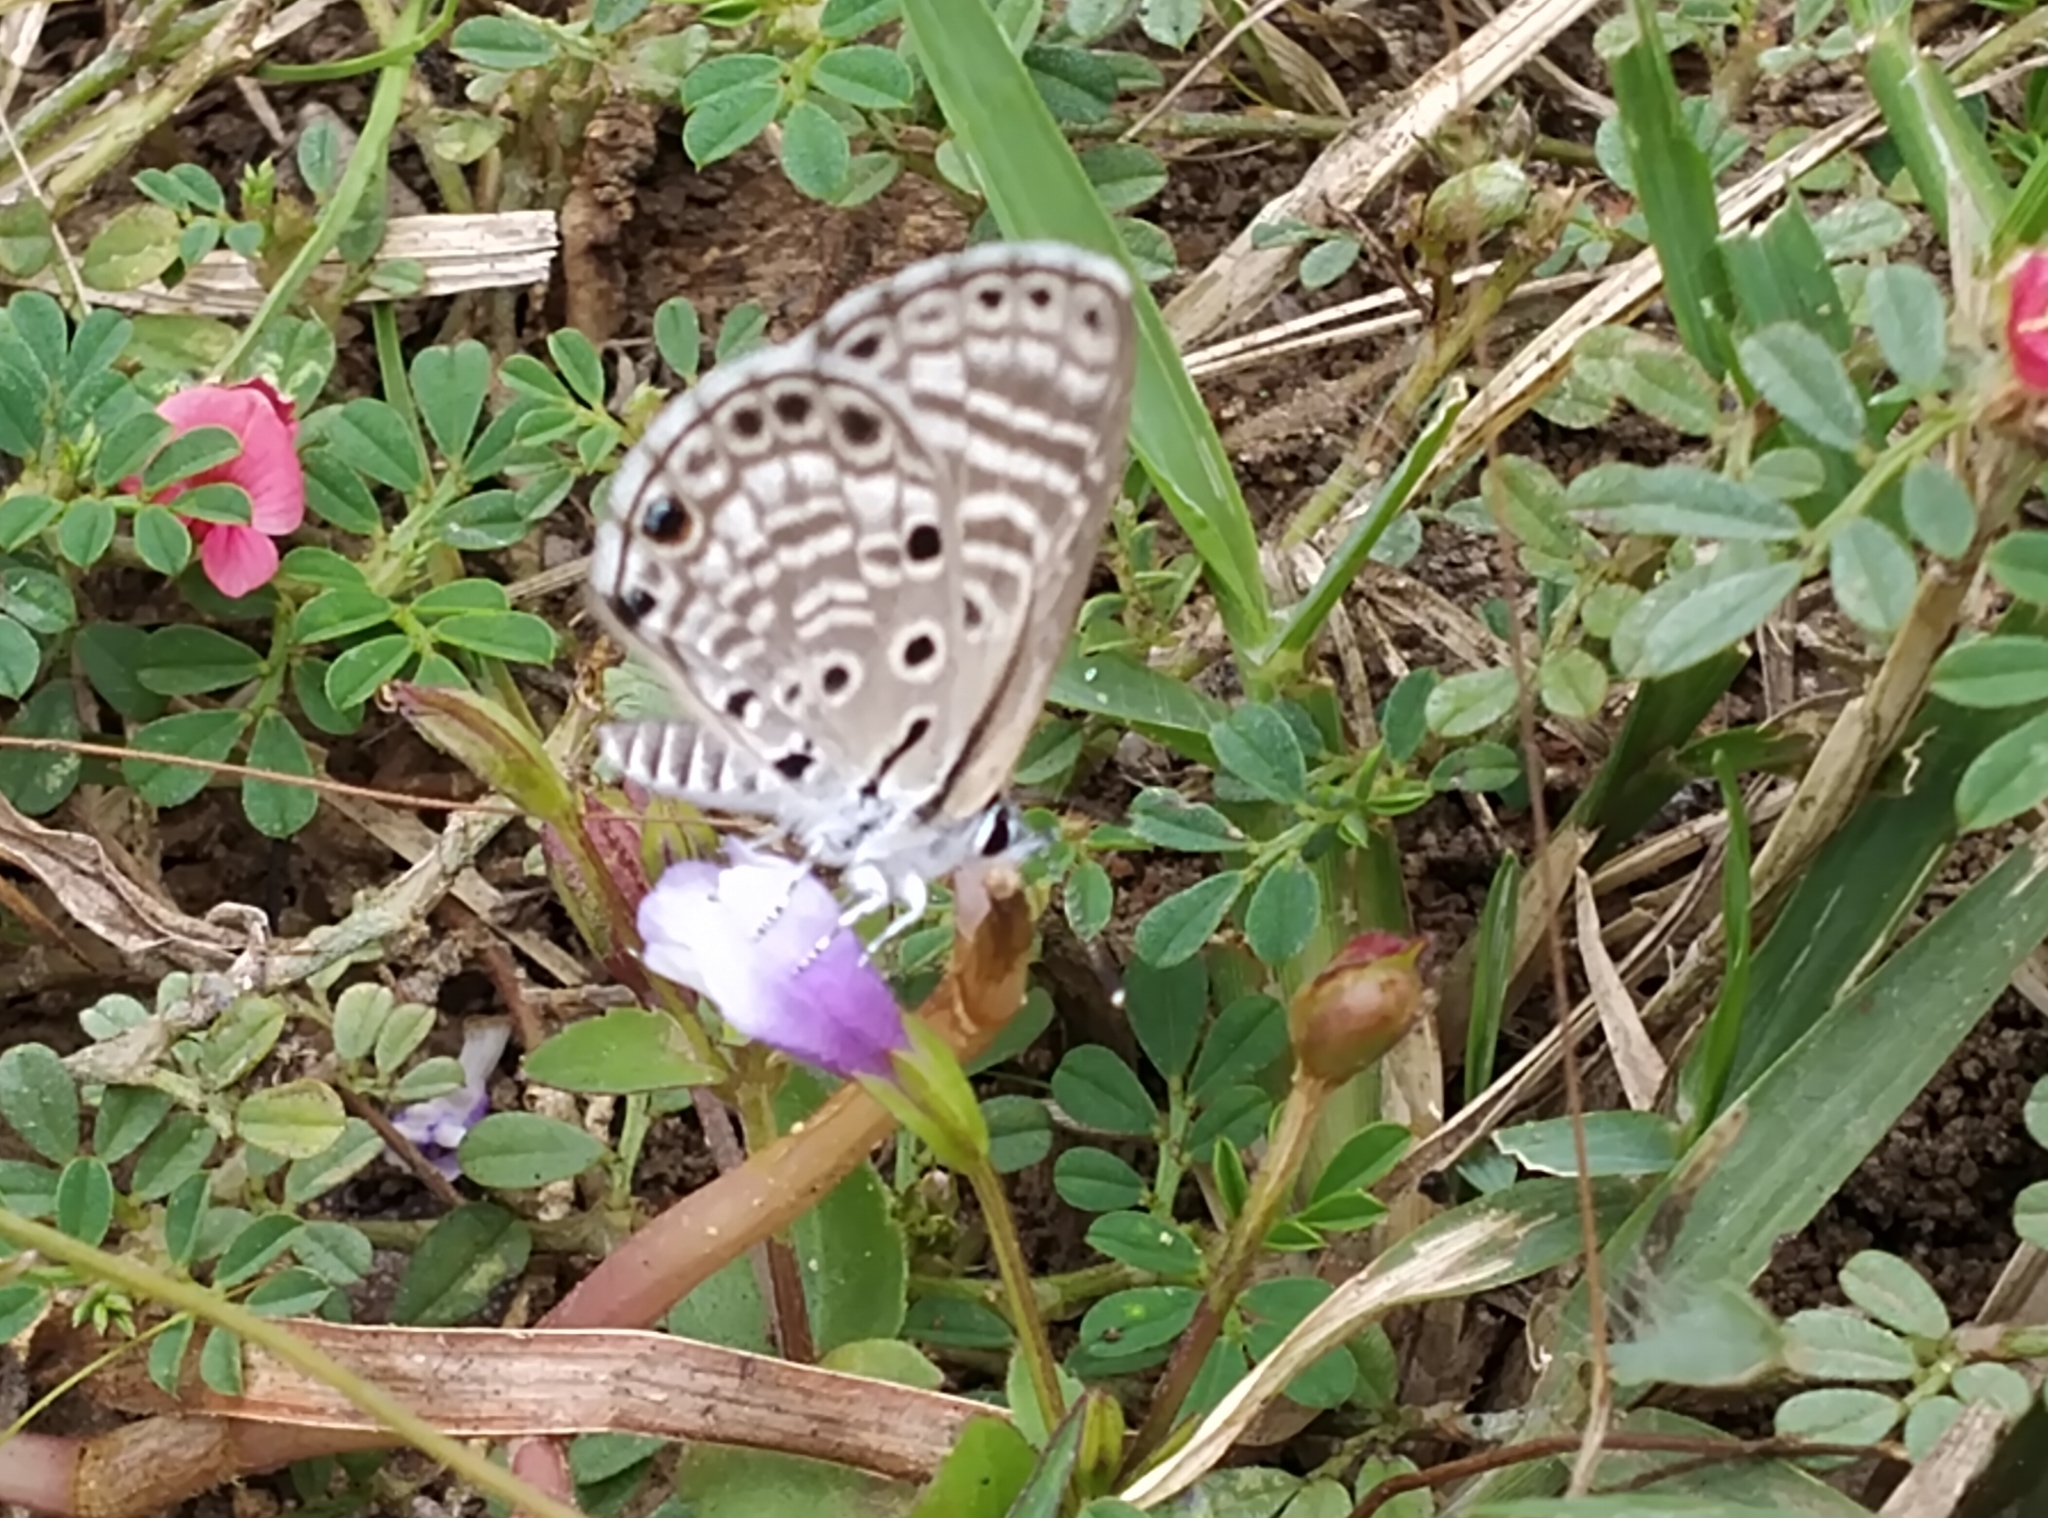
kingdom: Animalia
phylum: Arthropoda
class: Insecta
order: Lepidoptera
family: Lycaenidae
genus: Azanus
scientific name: Azanus jesous
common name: African babul blue
